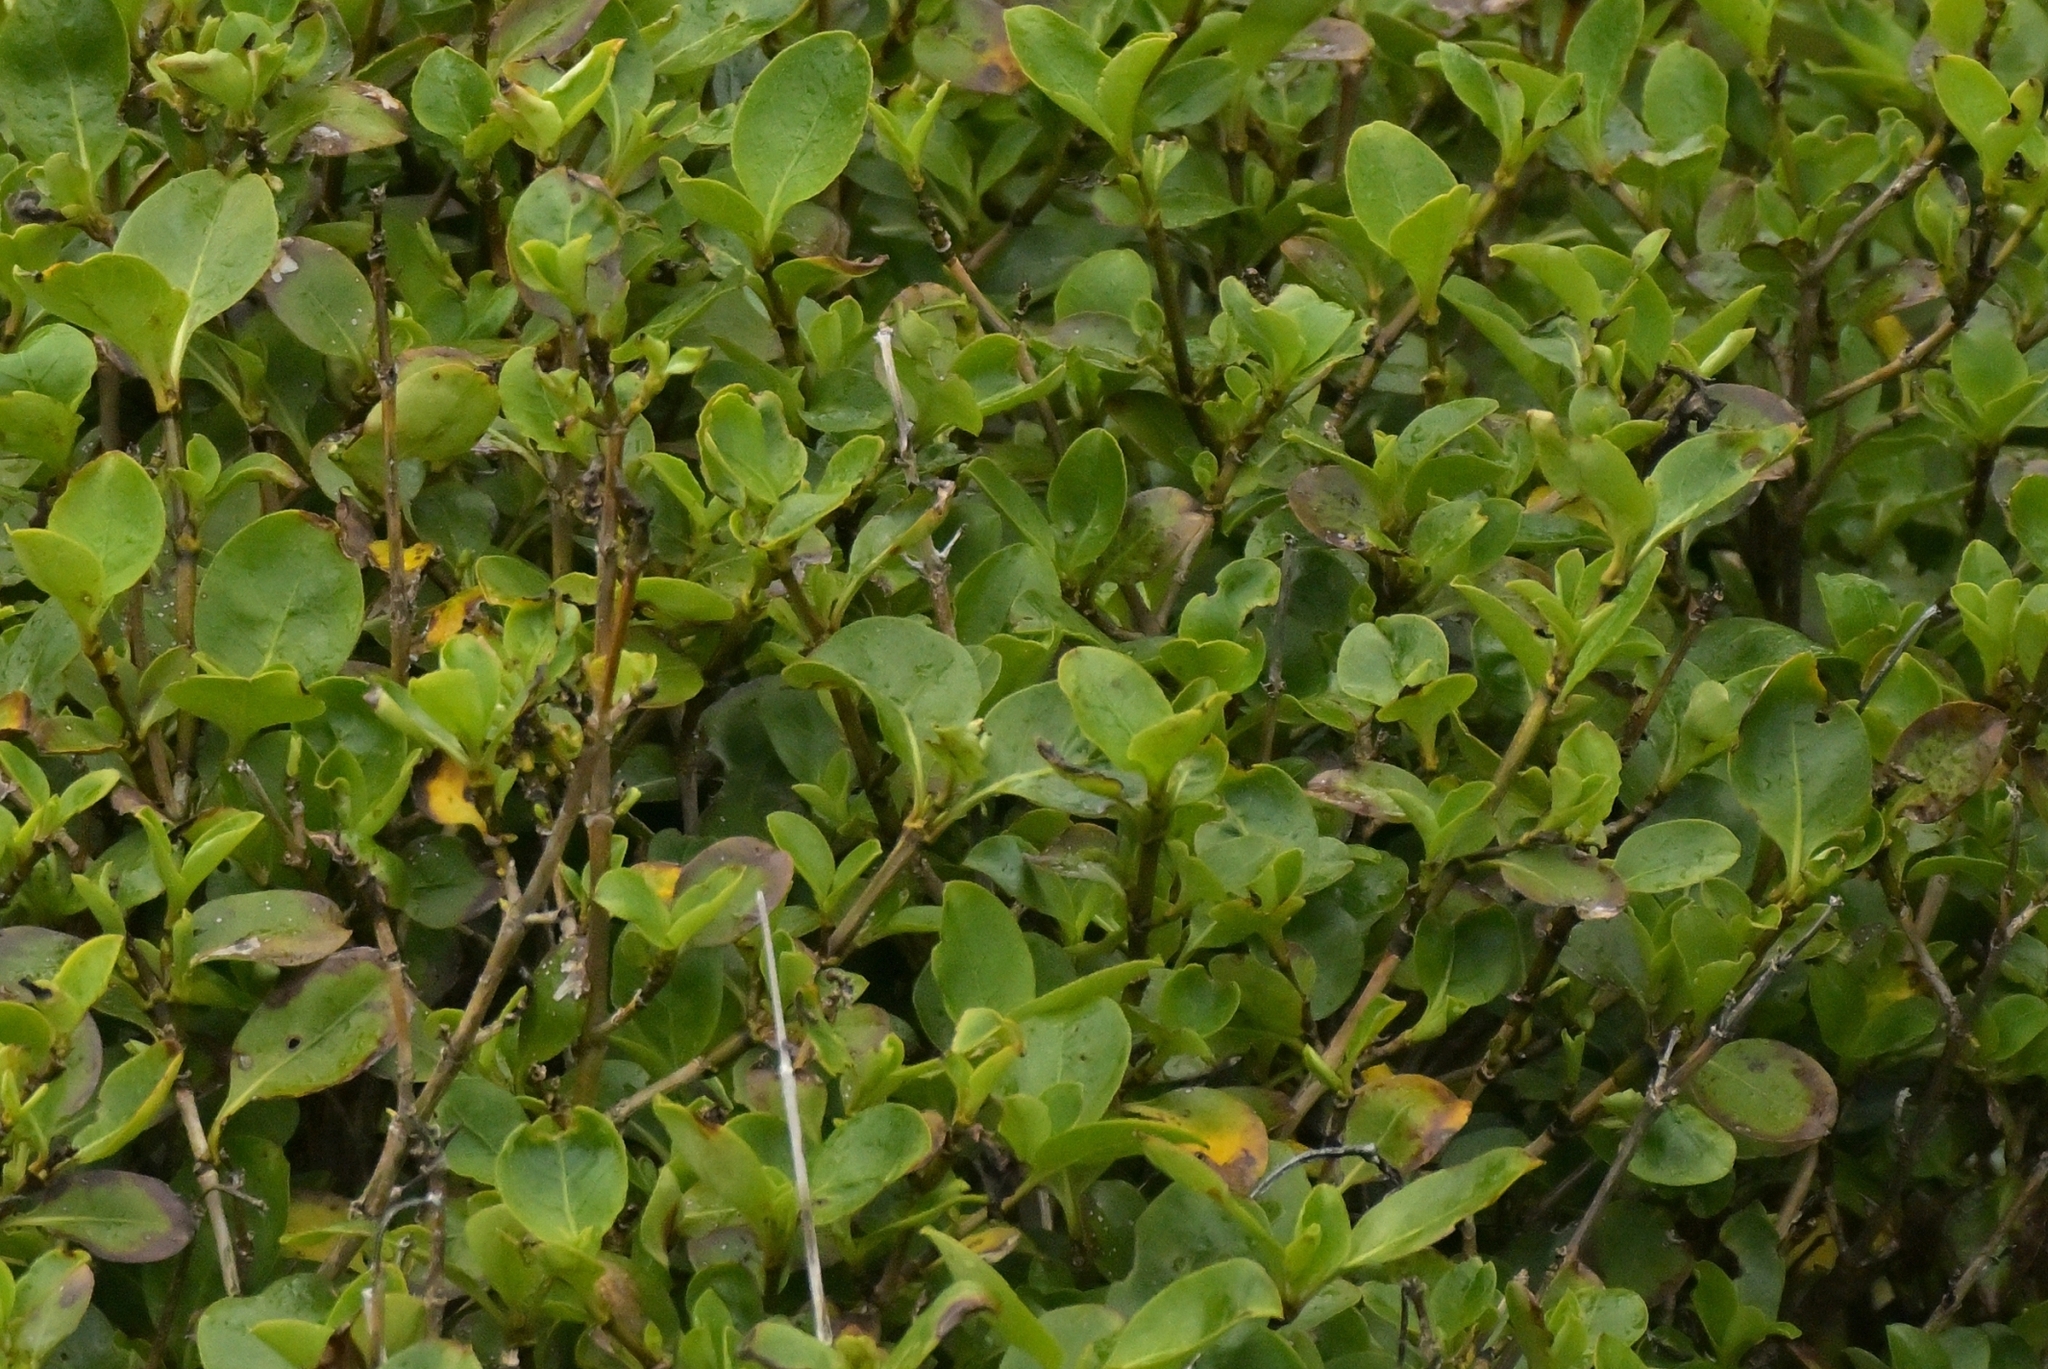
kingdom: Plantae
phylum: Tracheophyta
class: Magnoliopsida
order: Gentianales
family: Rubiaceae
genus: Coprosma
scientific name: Coprosma foetidissima
